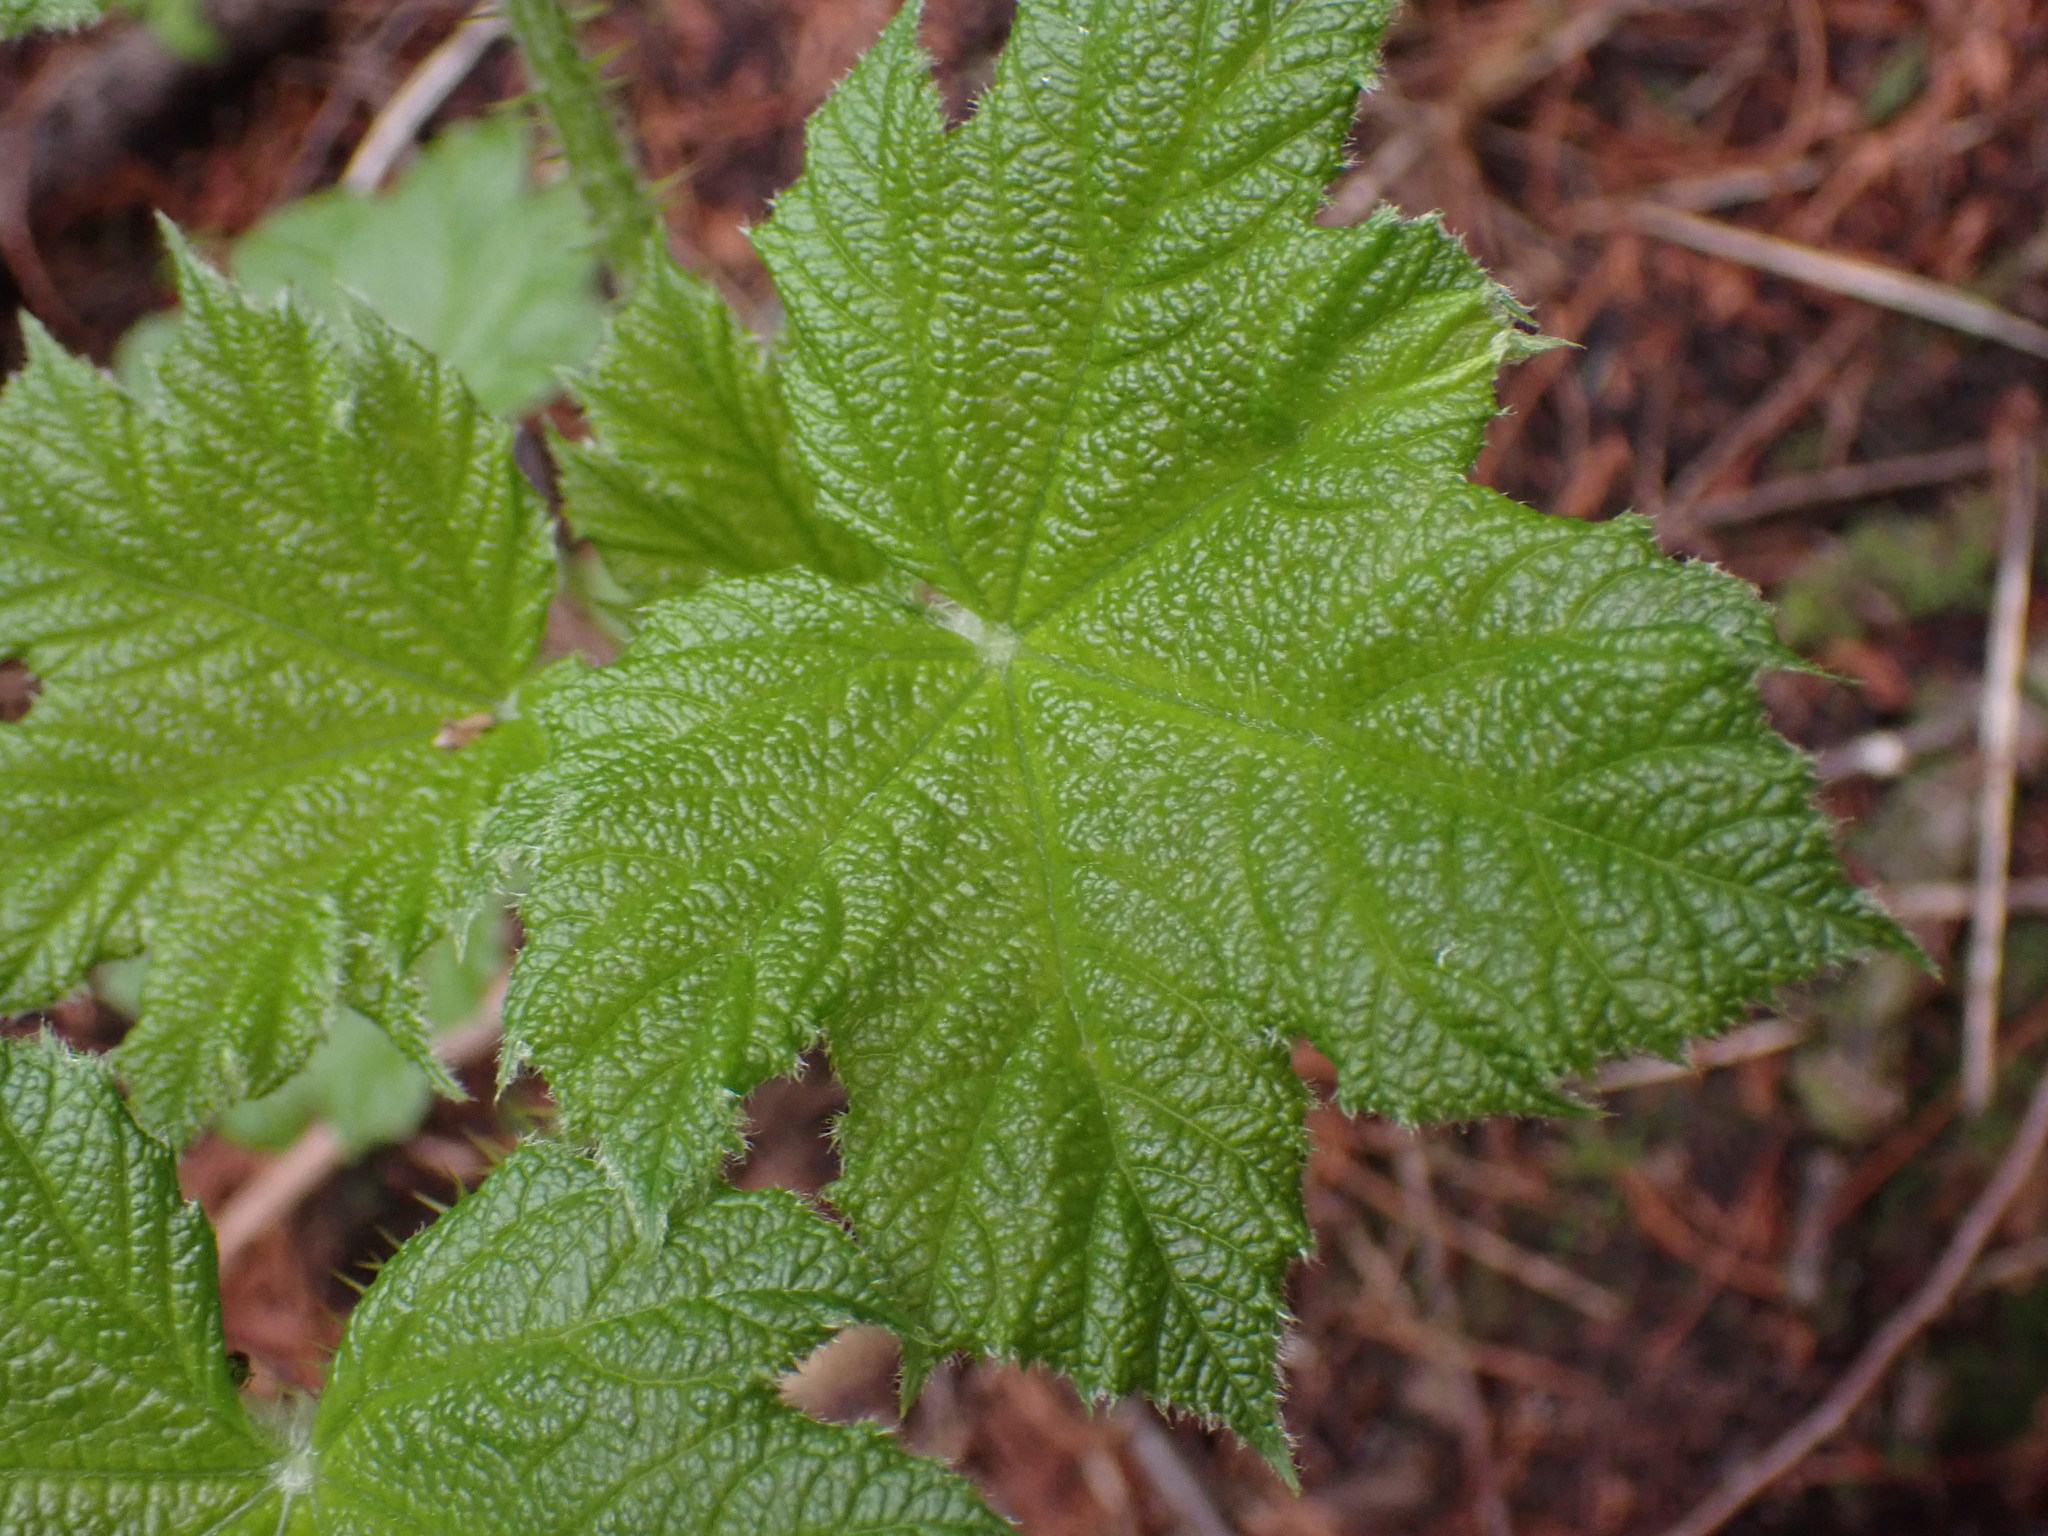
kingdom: Plantae
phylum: Tracheophyta
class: Magnoliopsida
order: Apiales
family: Araliaceae
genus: Oplopanax
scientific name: Oplopanax horridus
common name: Devil's walking-stick
